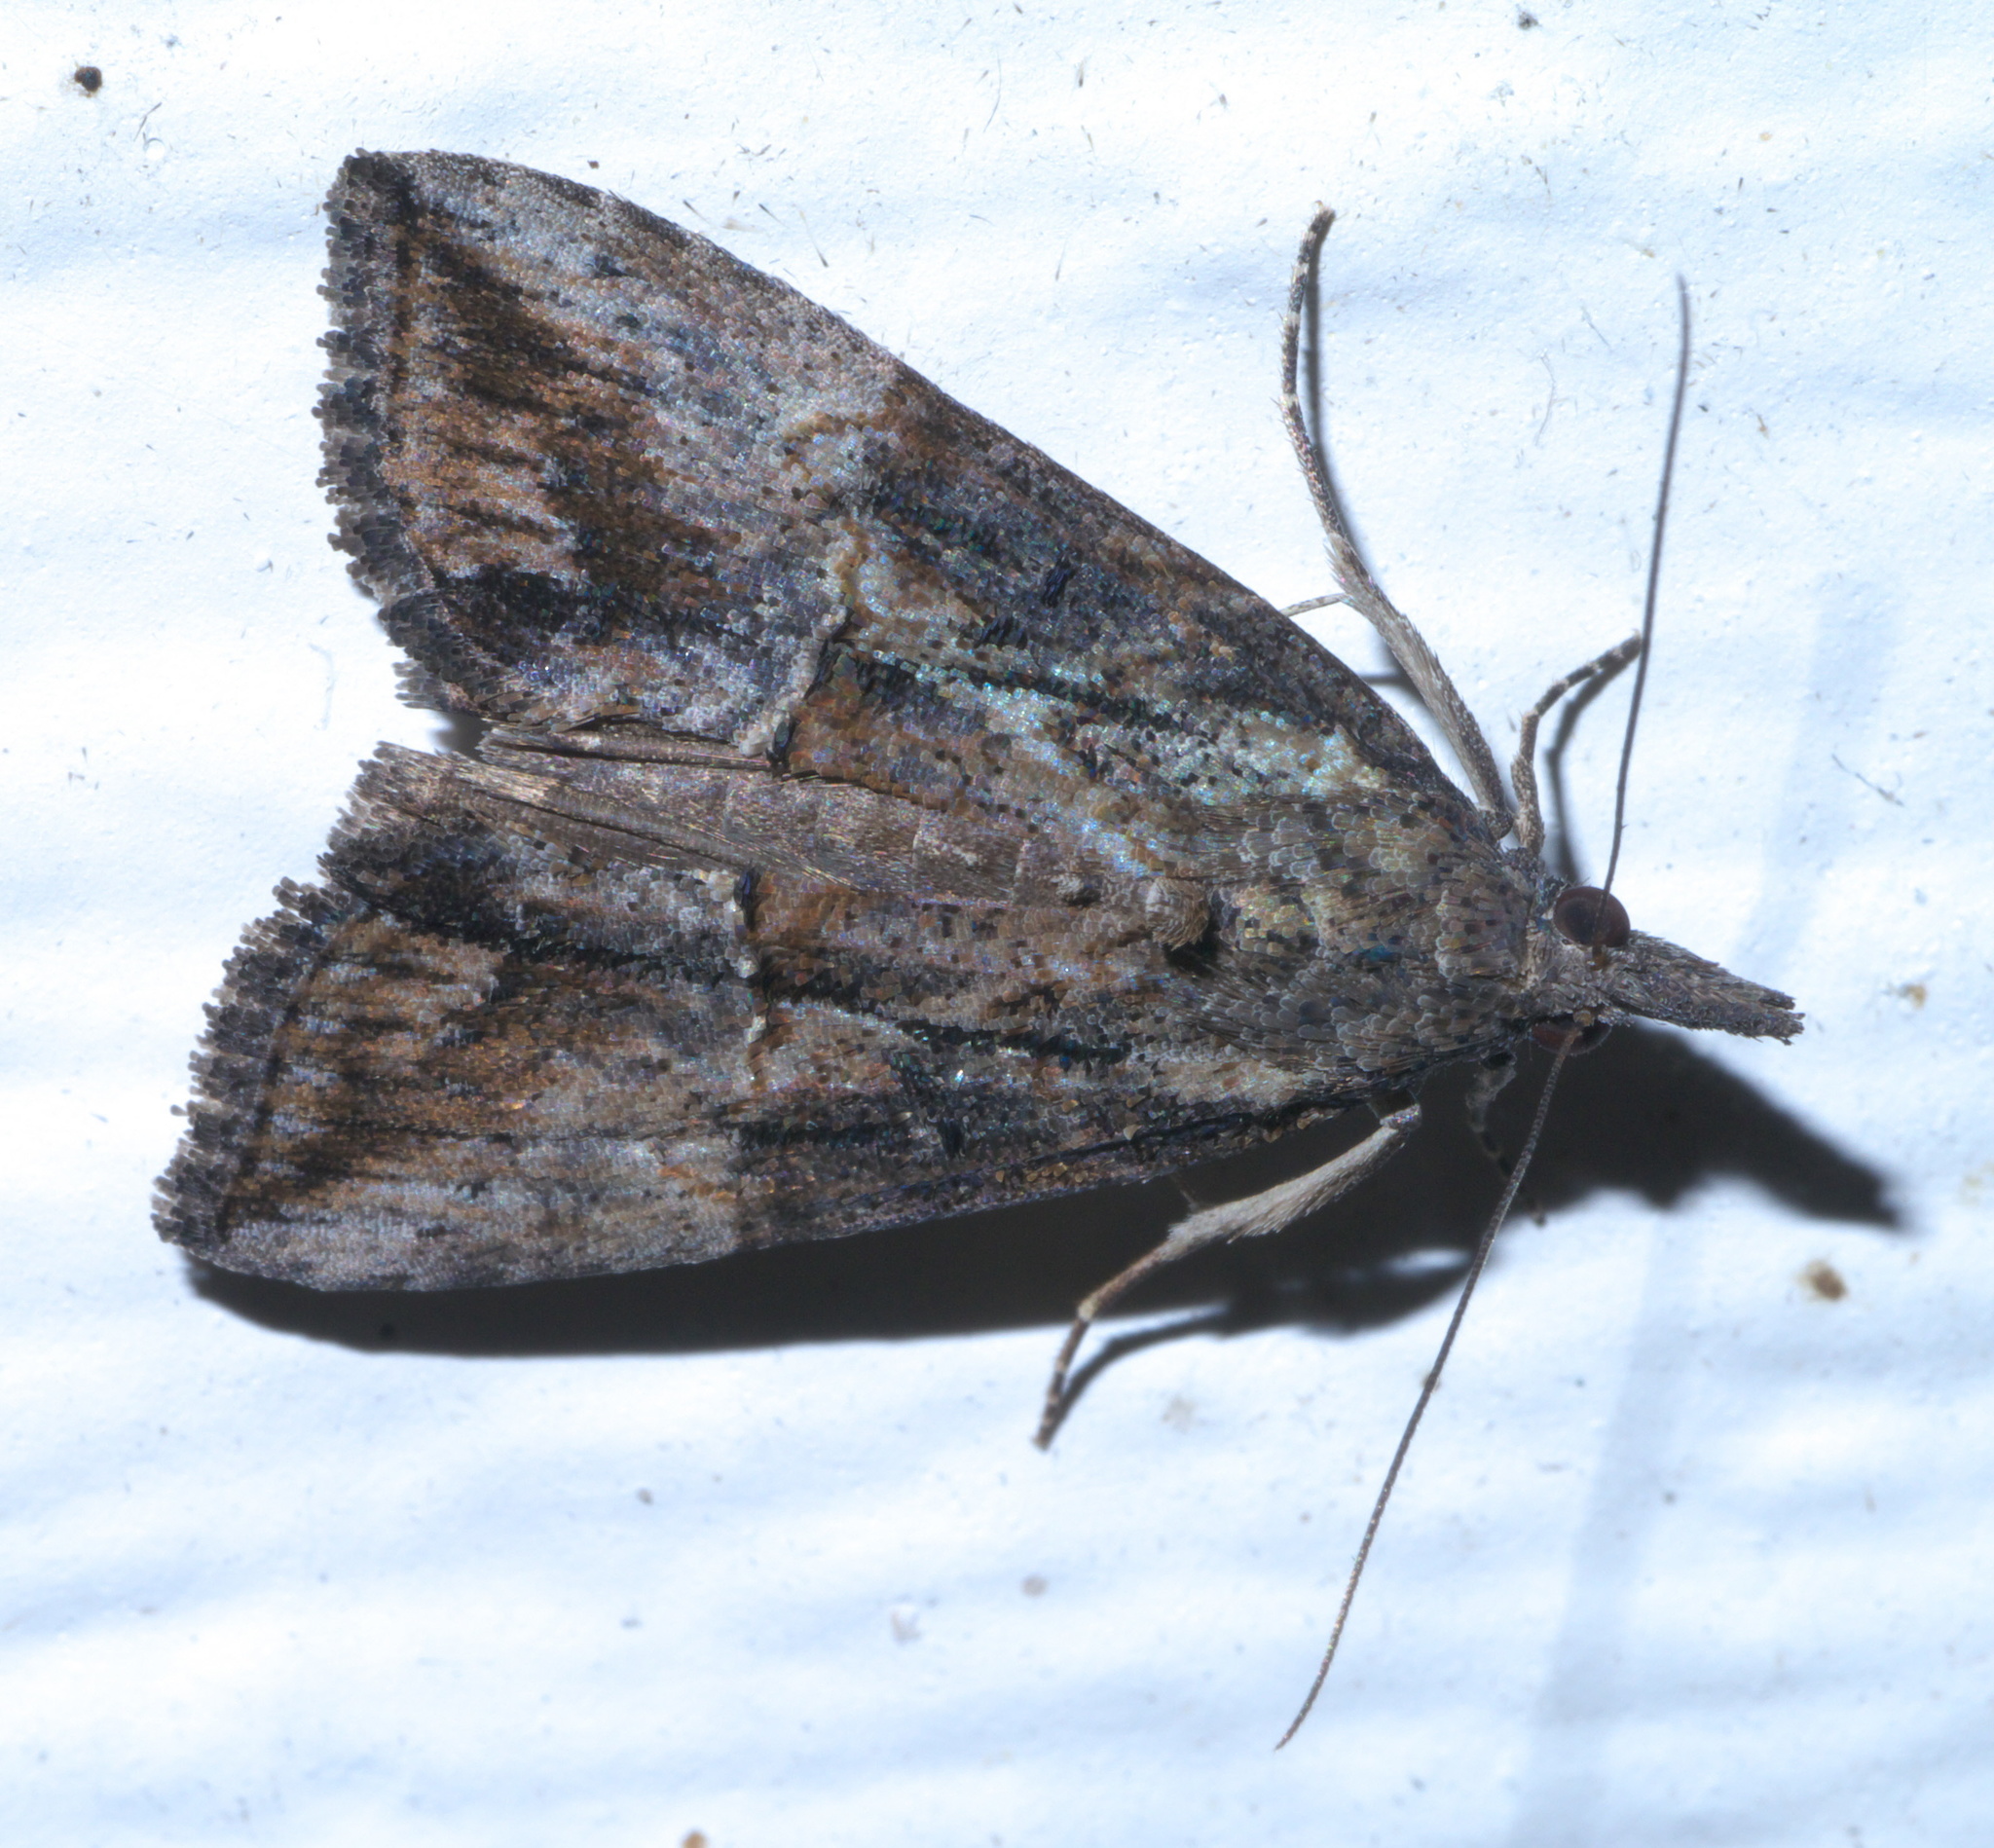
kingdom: Animalia
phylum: Arthropoda
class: Insecta
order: Lepidoptera
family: Erebidae
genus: Hypena
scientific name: Hypena scabra
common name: Green cloverworm
